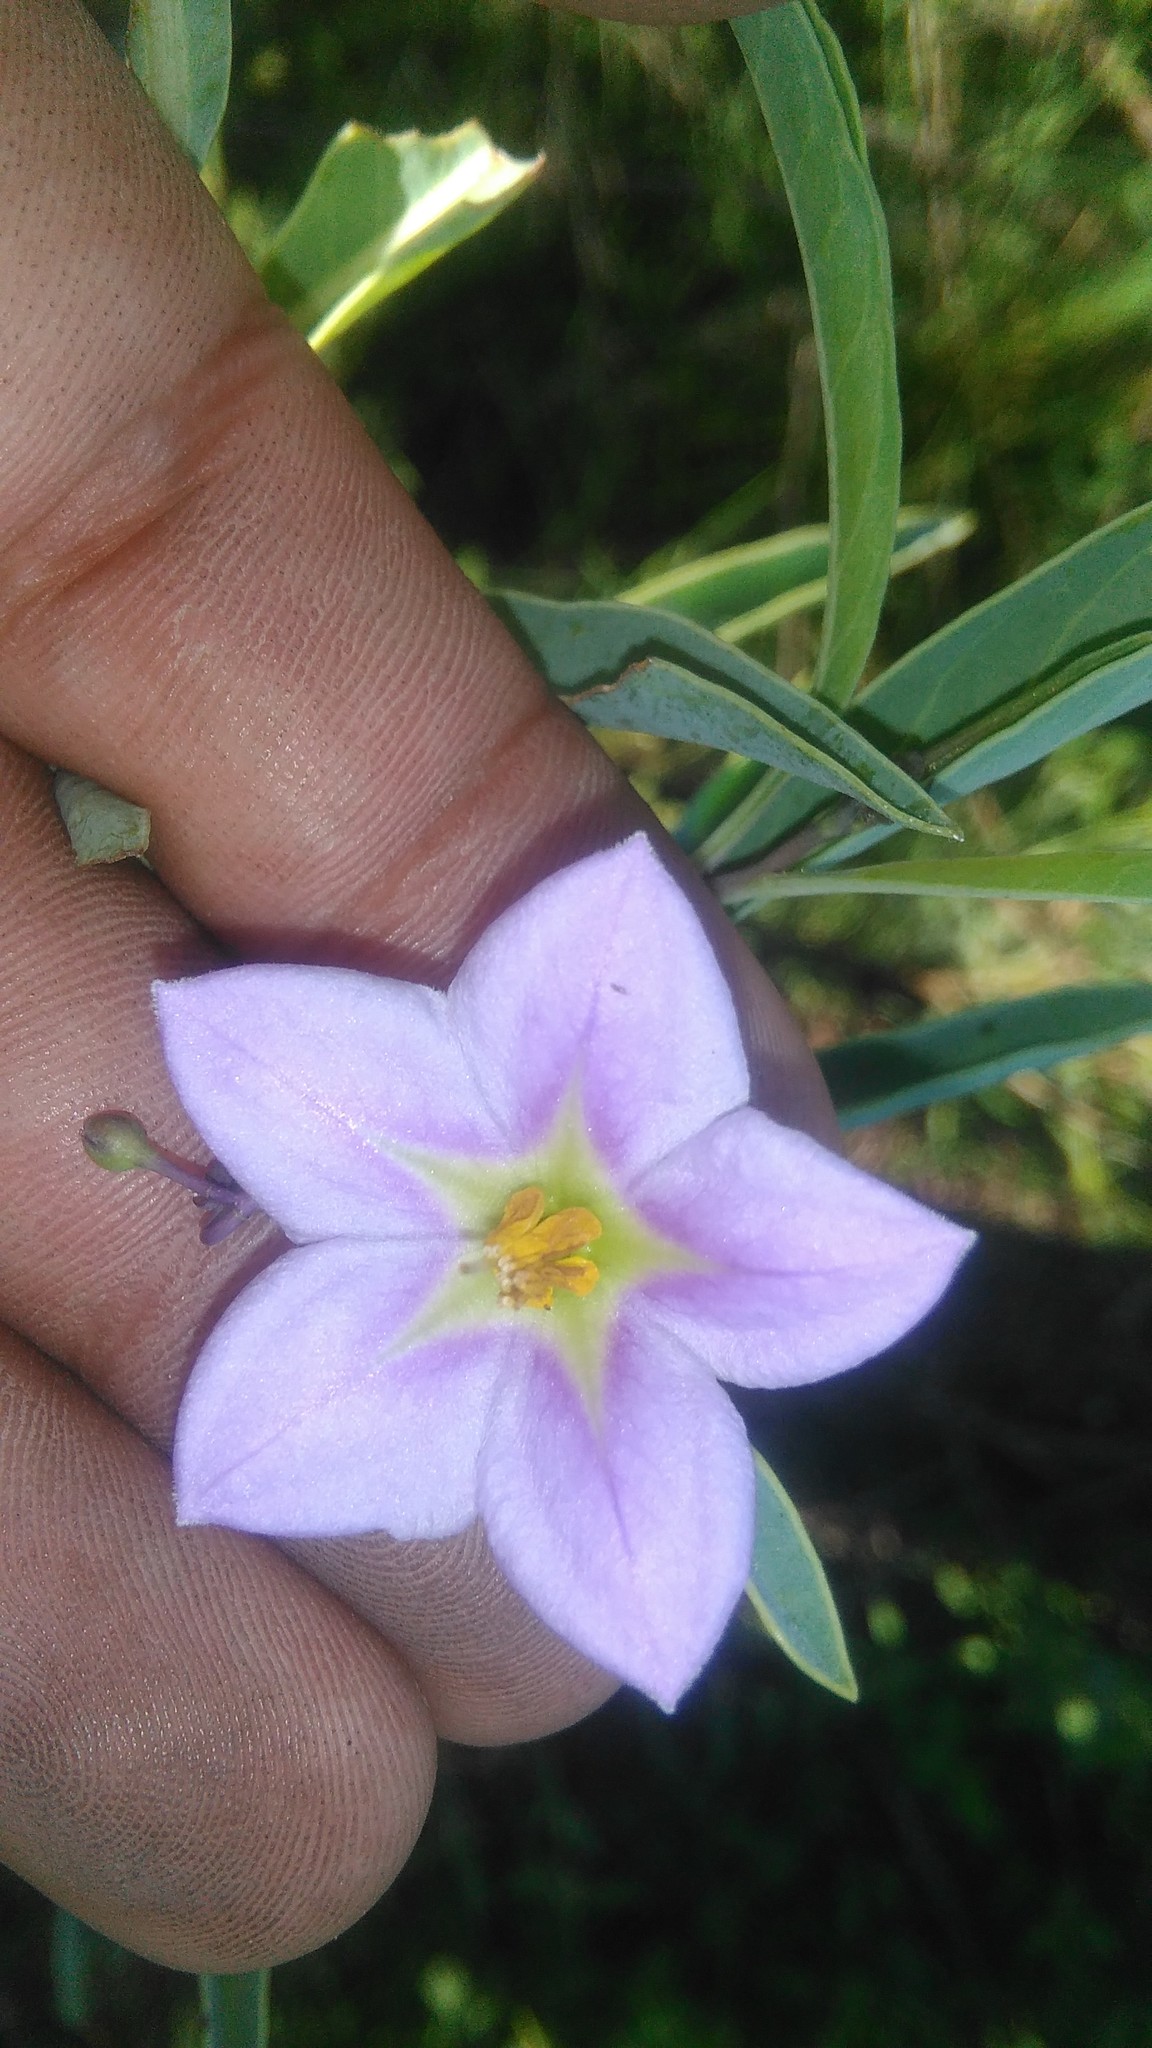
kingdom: Plantae
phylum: Tracheophyta
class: Magnoliopsida
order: Solanales
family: Solanaceae
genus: Solanum
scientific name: Solanum glaucophyllum
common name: Waxyleaf nightshade
